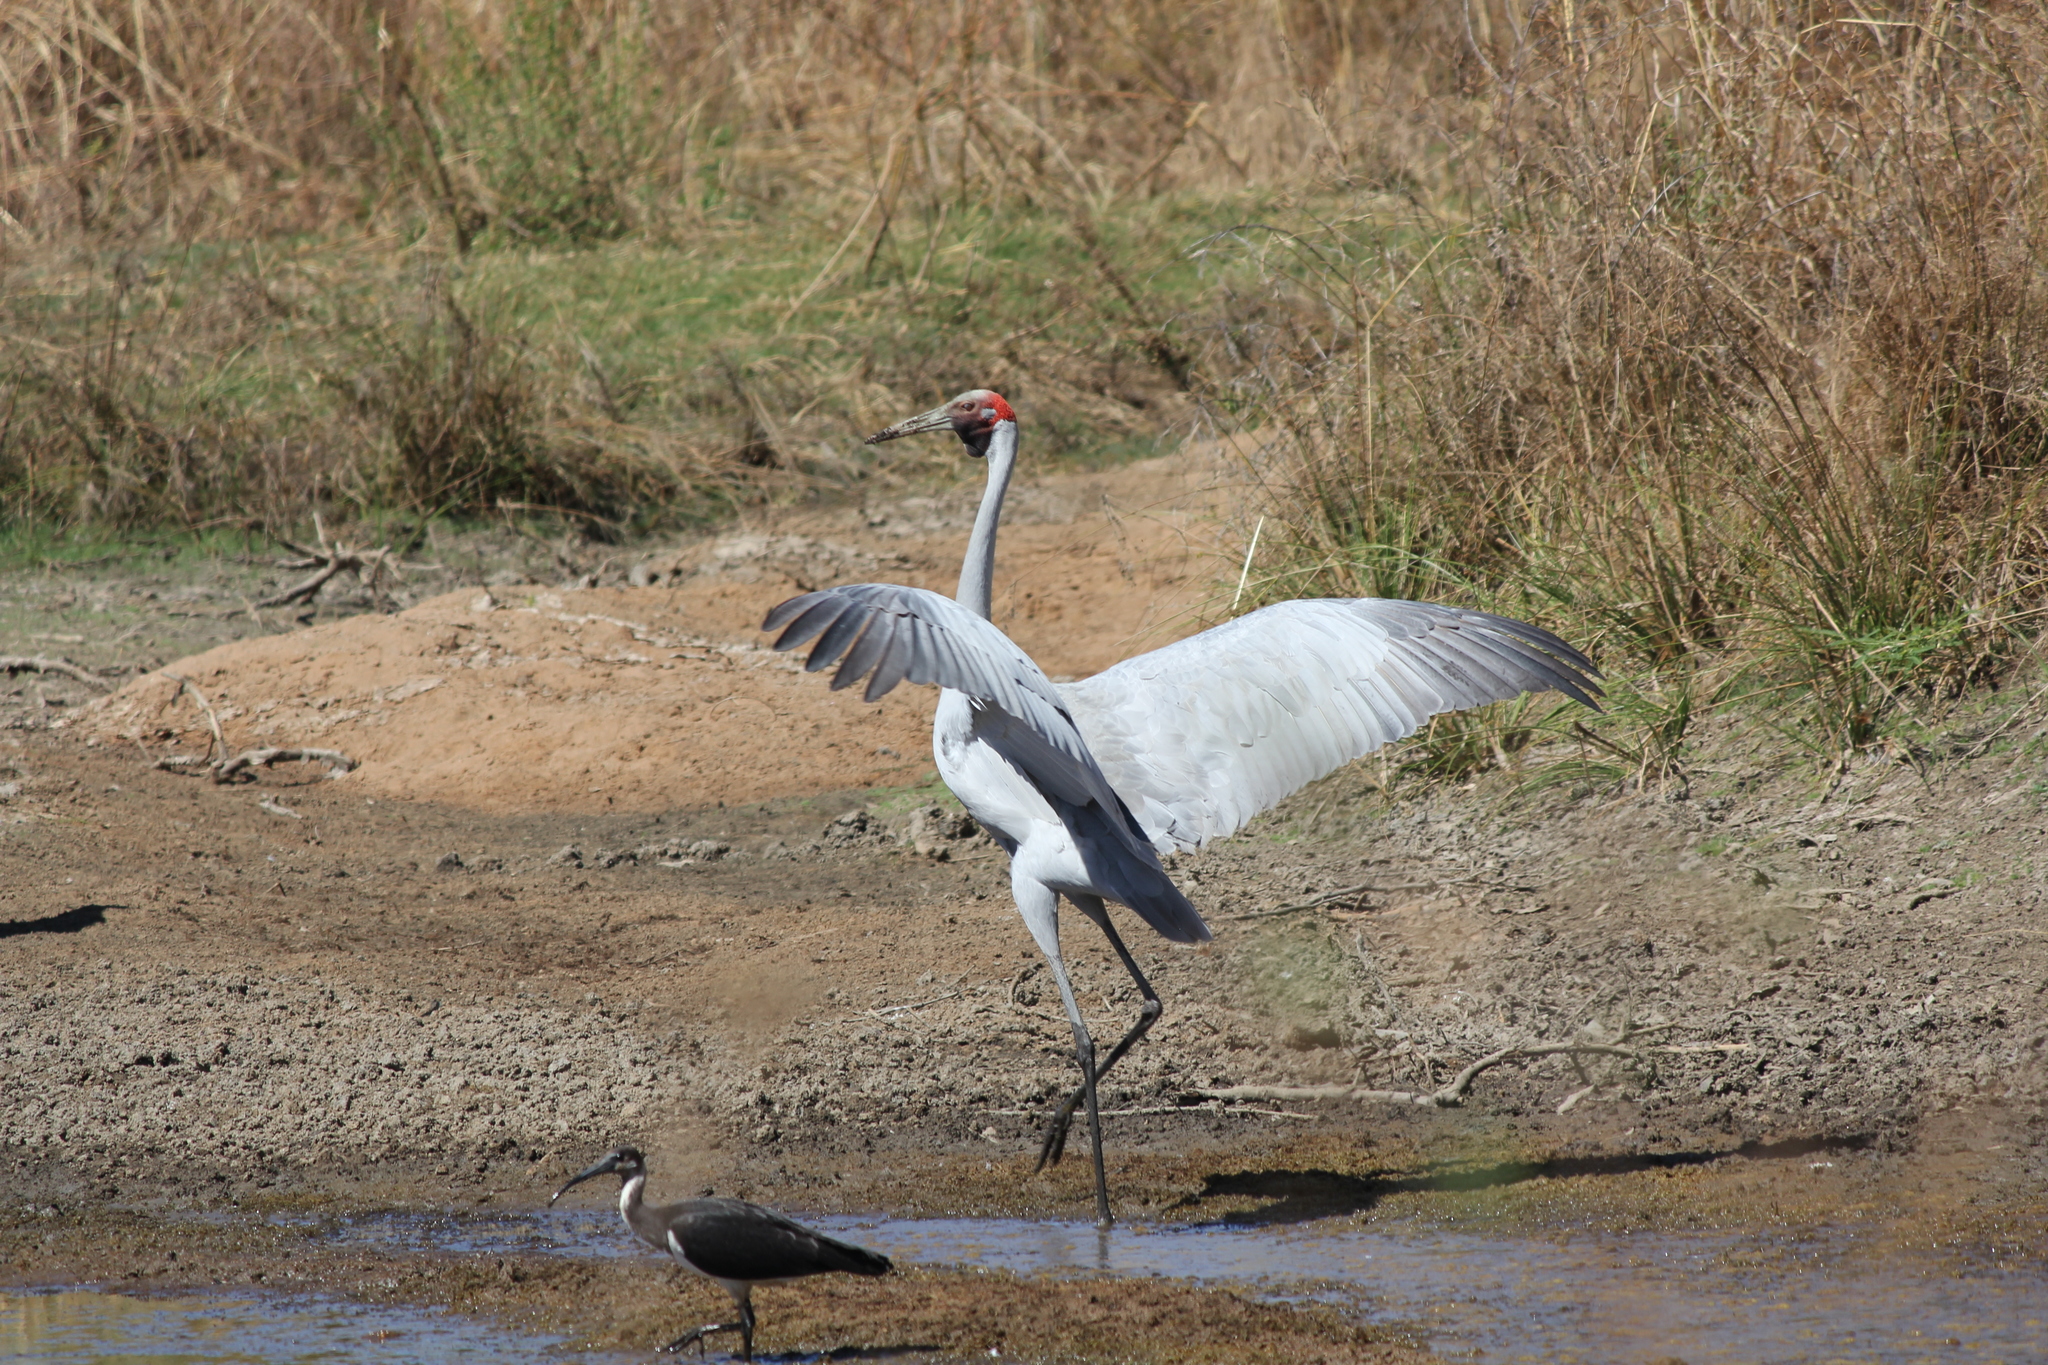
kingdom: Animalia
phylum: Chordata
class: Aves
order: Gruiformes
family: Gruidae
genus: Grus
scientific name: Grus rubicunda
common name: Brolga
